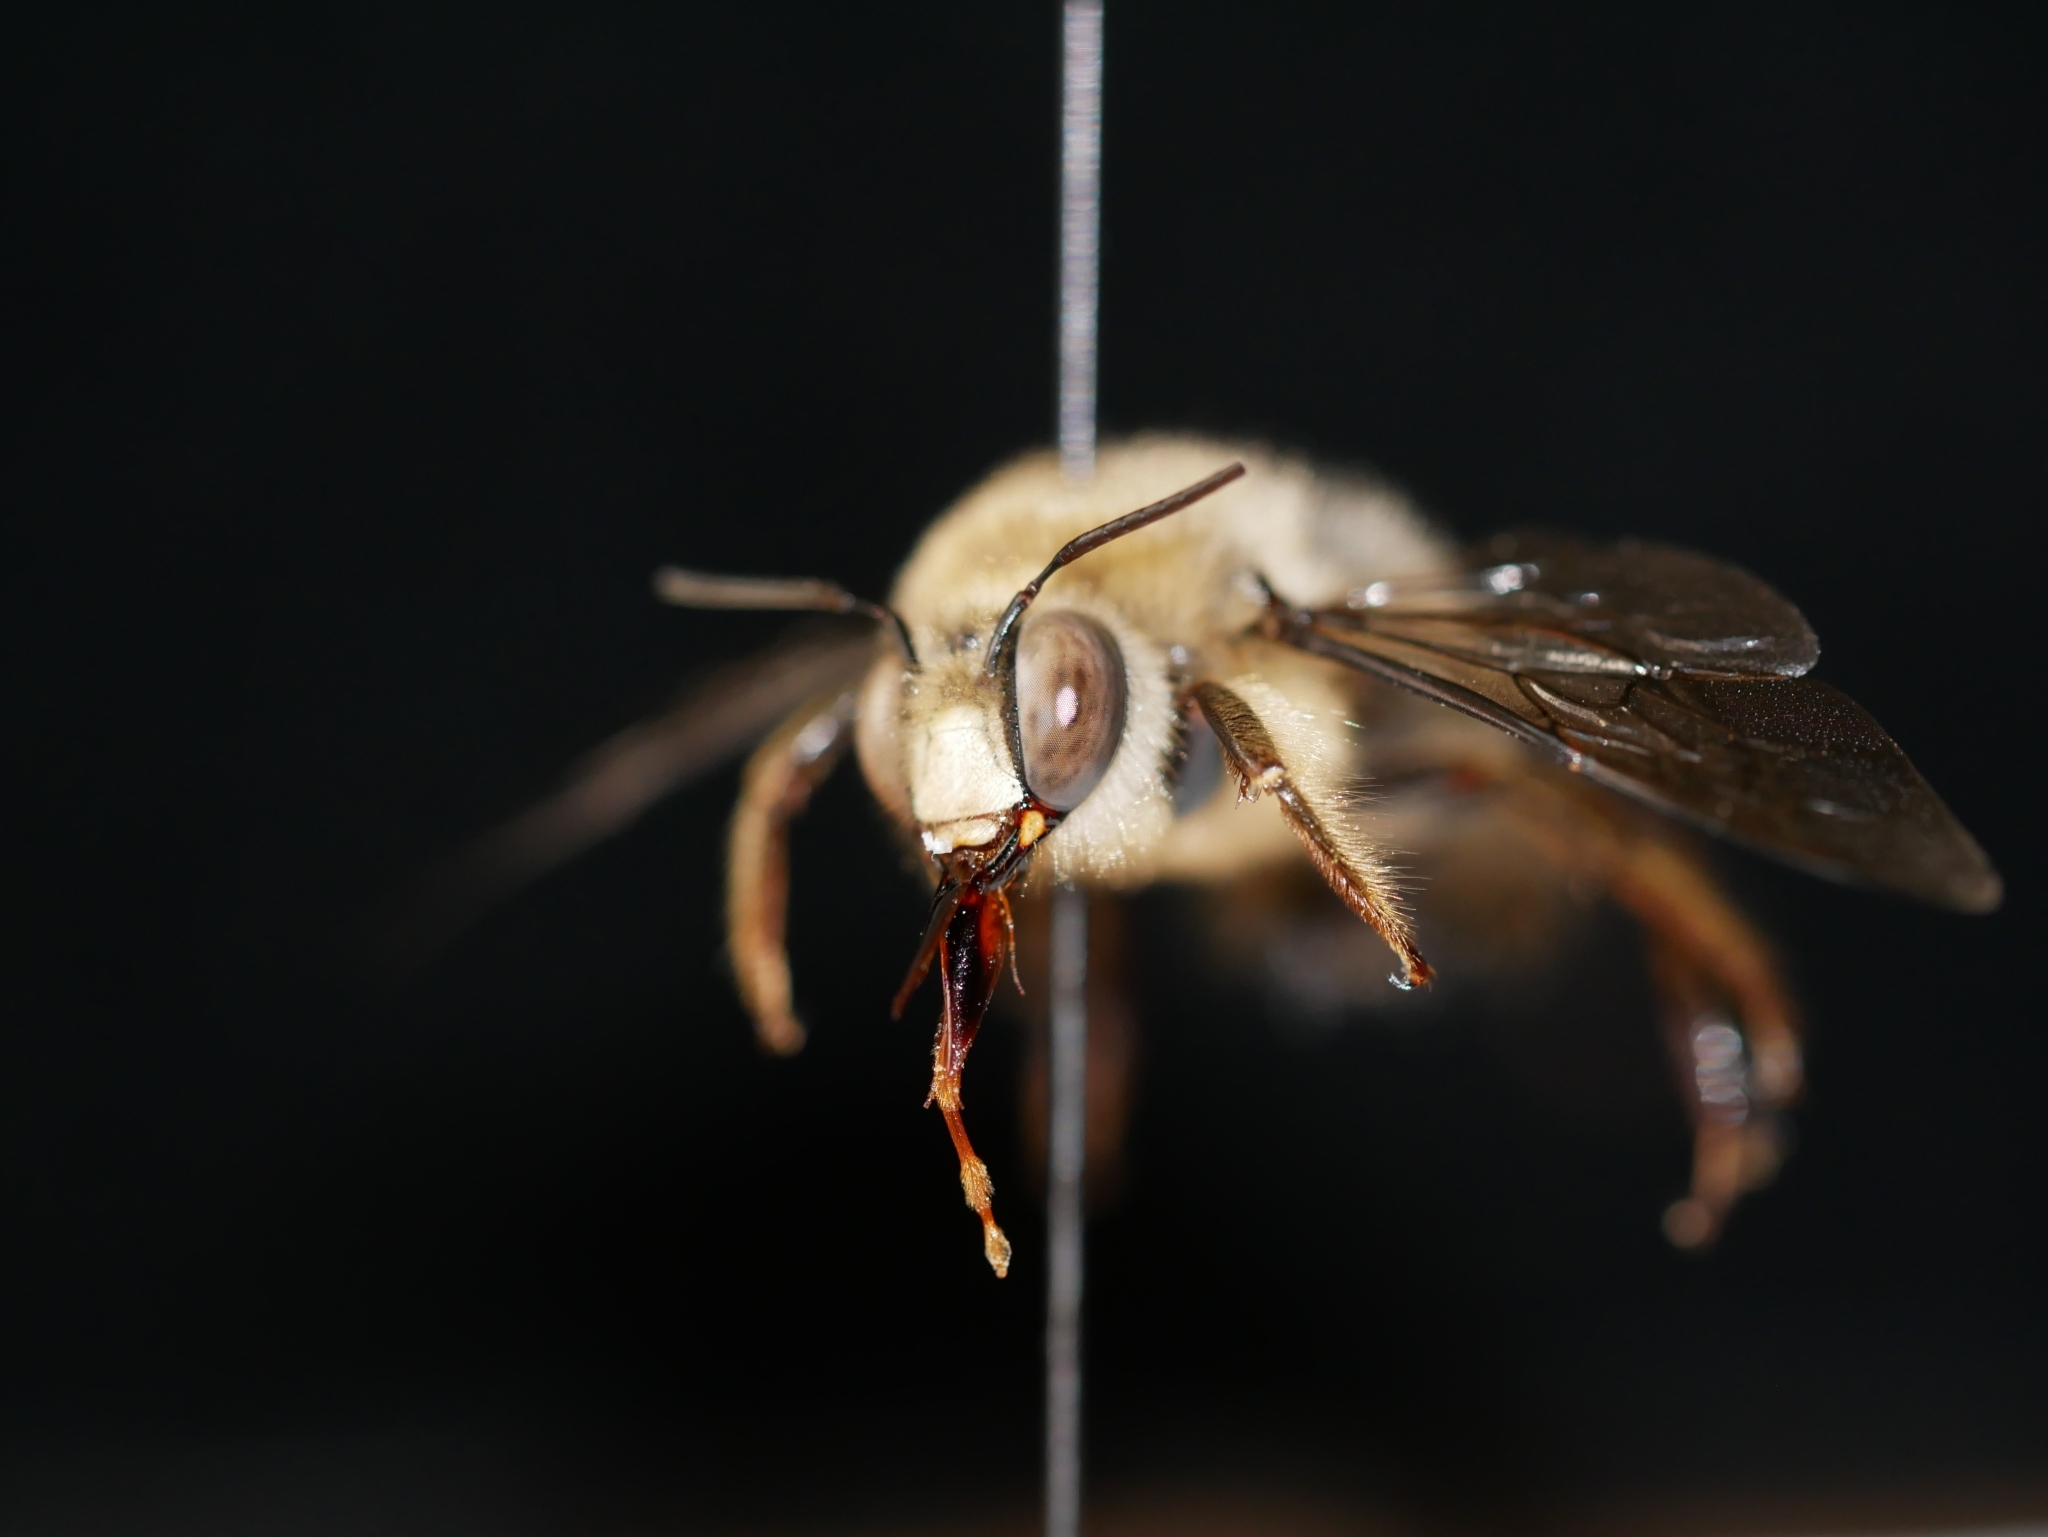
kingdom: Animalia
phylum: Arthropoda
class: Insecta
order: Hymenoptera
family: Apidae
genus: Xylocopa
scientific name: Xylocopa tabaniformis
